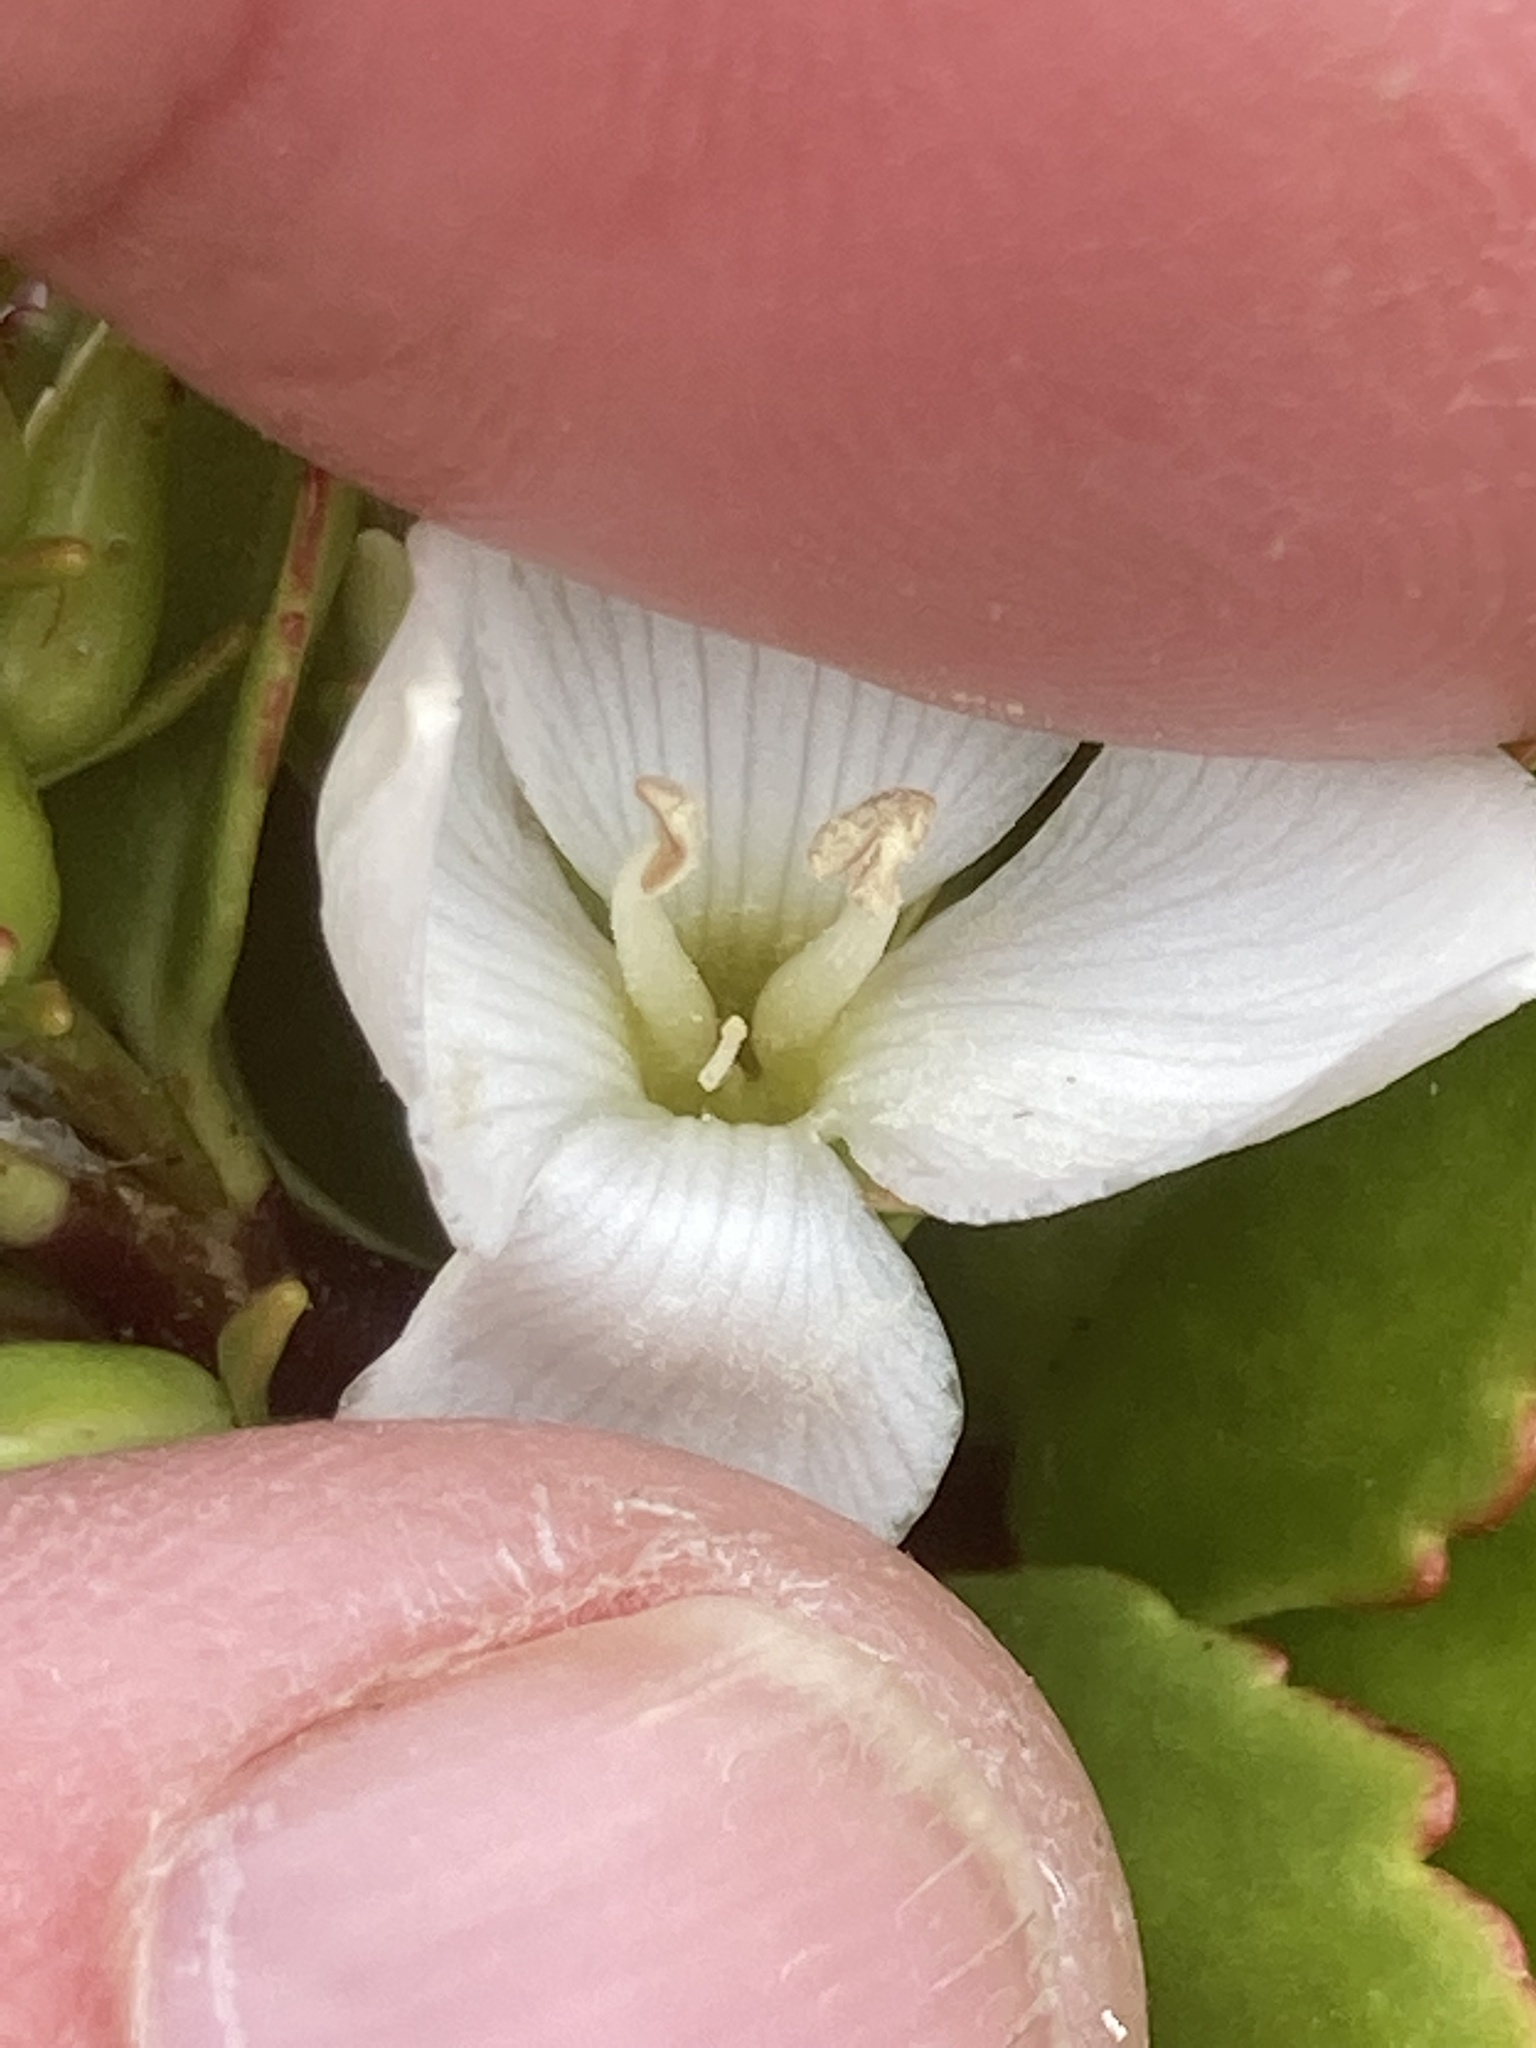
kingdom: Plantae
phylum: Tracheophyta
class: Magnoliopsida
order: Lamiales
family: Plantaginaceae
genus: Veronica
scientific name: Veronica macrantha
